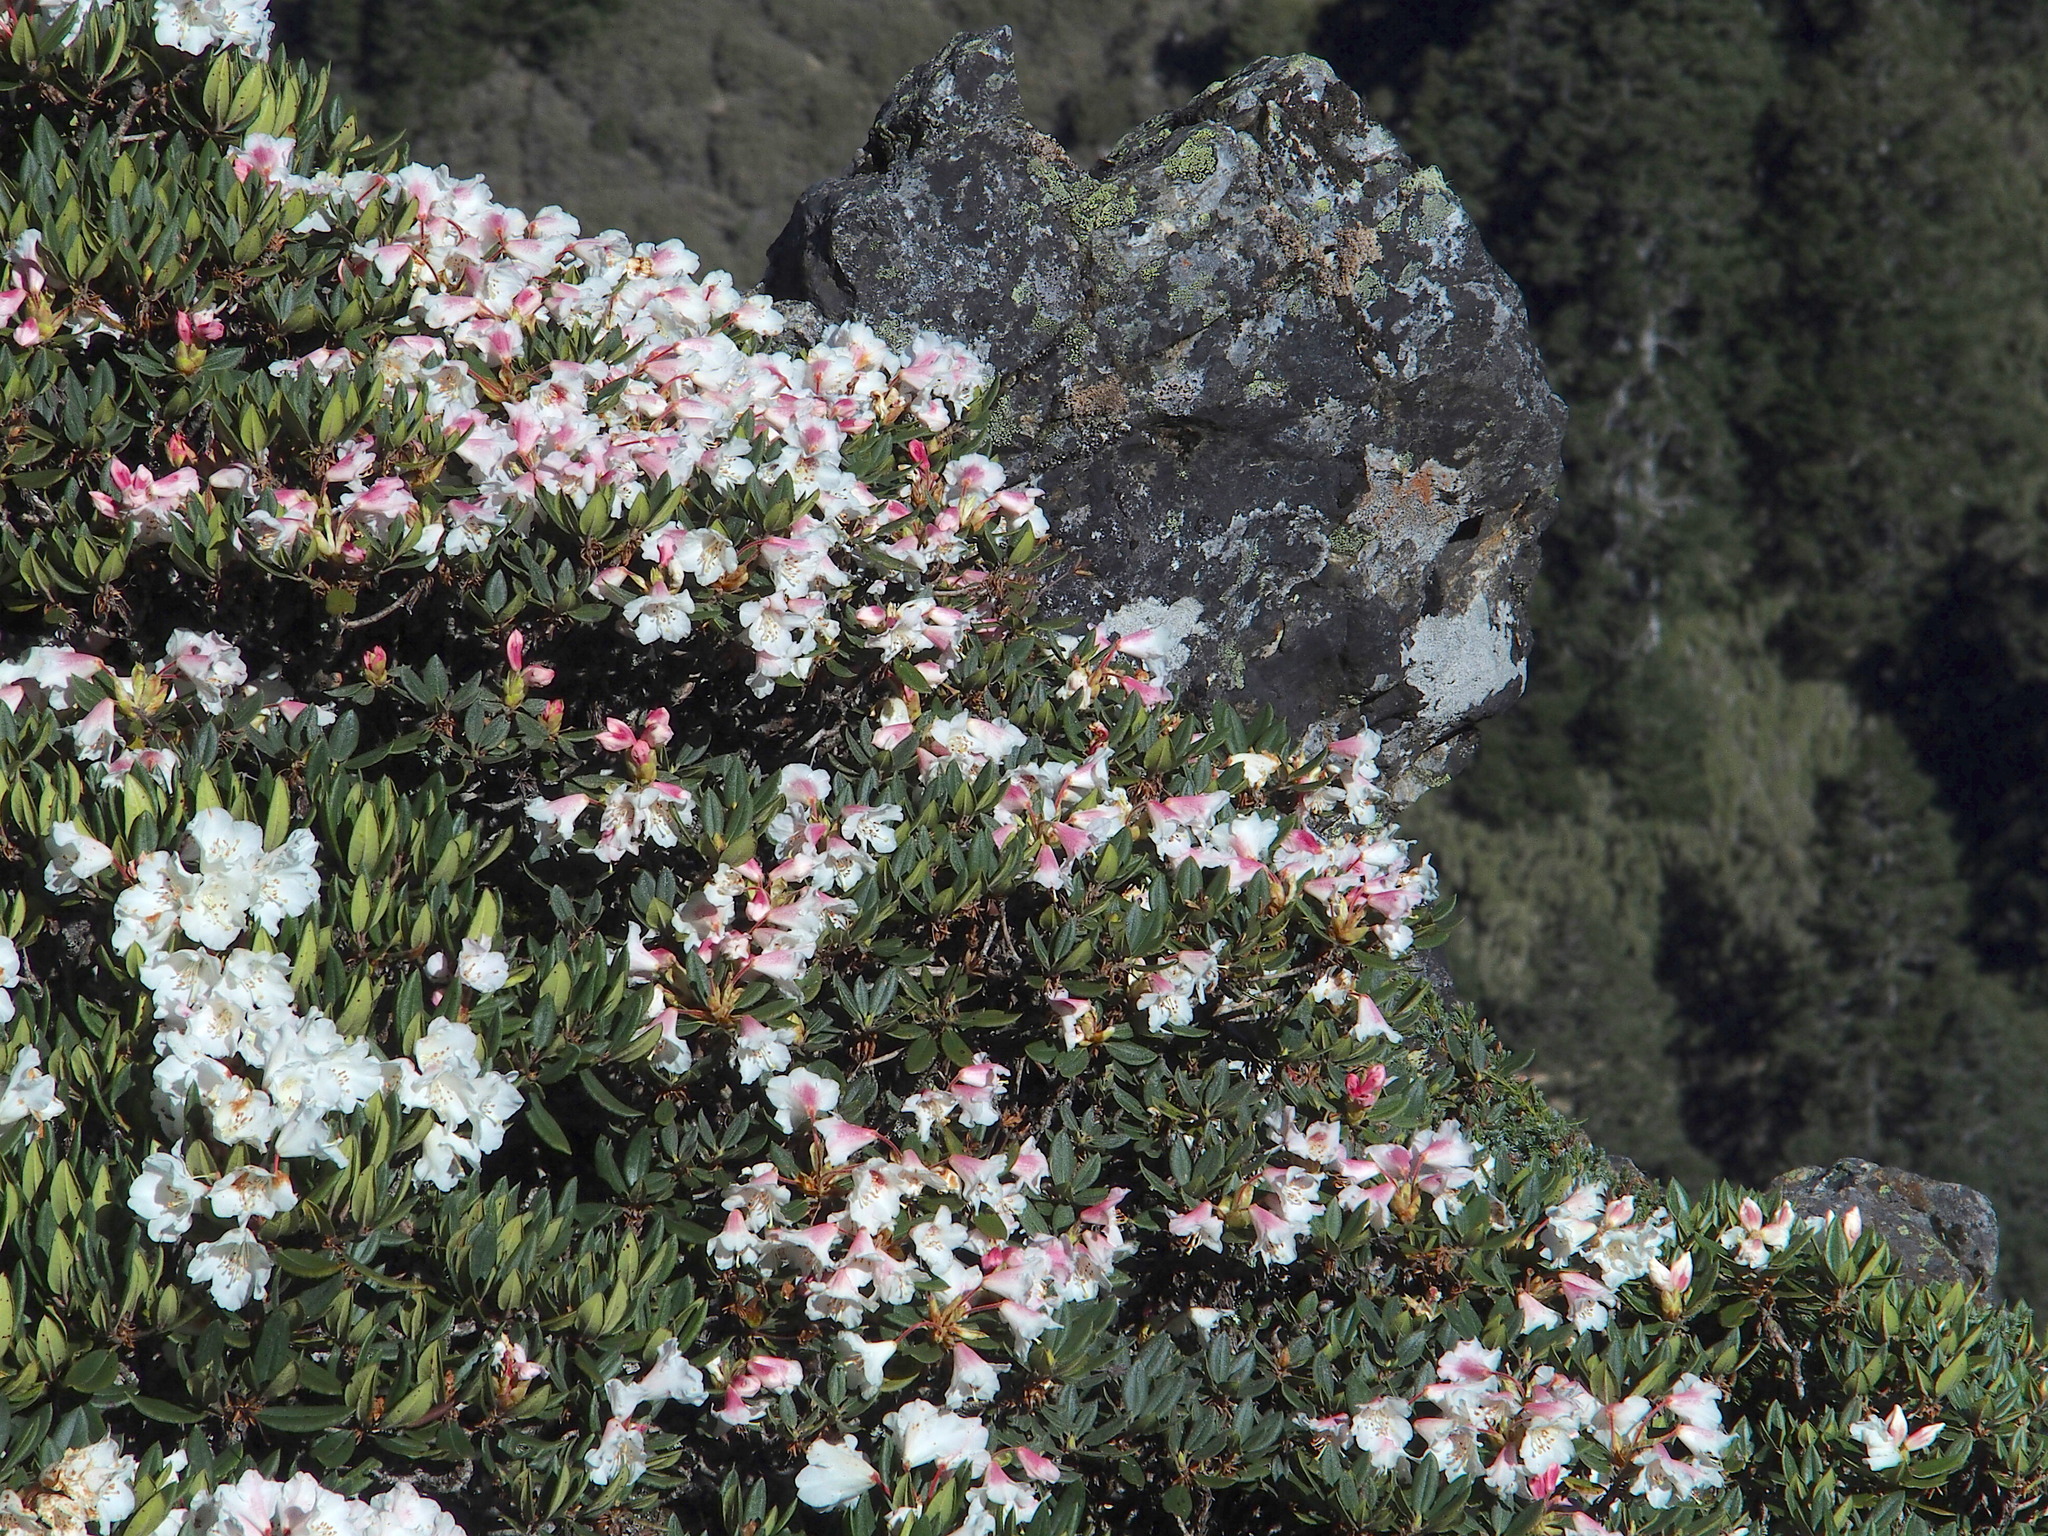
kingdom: Plantae
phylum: Tracheophyta
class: Magnoliopsida
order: Ericales
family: Ericaceae
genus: Rhododendron
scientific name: Rhododendron pseudochrysanthum
